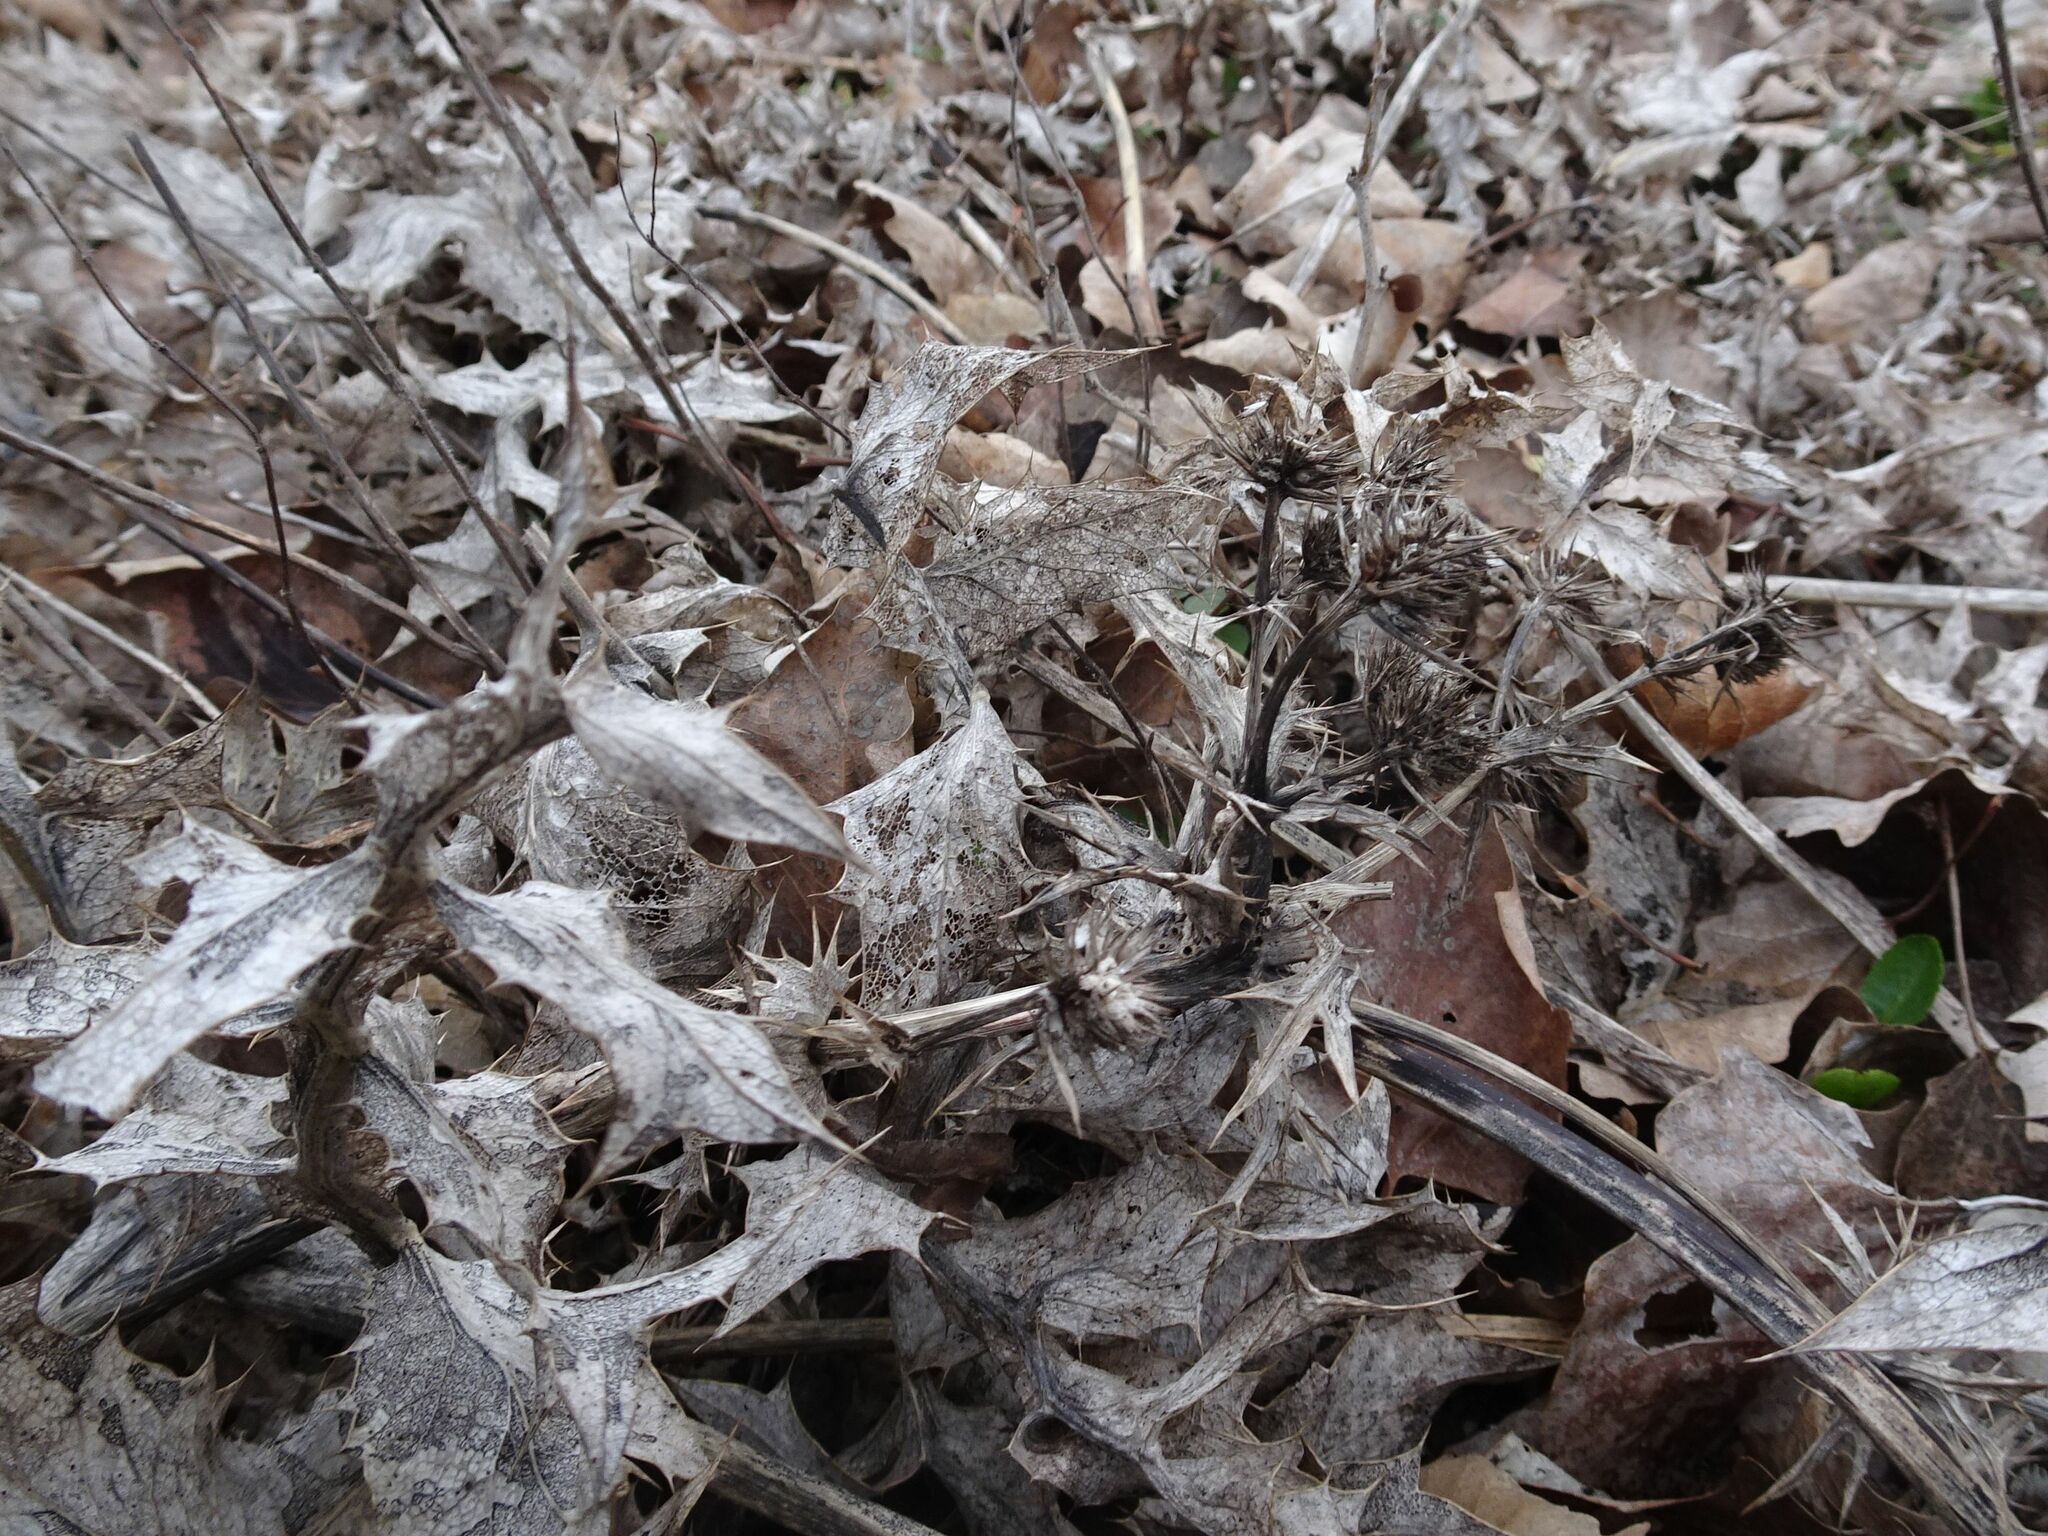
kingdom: Plantae
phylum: Tracheophyta
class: Magnoliopsida
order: Apiales
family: Apiaceae
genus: Eryngium
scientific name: Eryngium campestre
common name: Field eryngo
